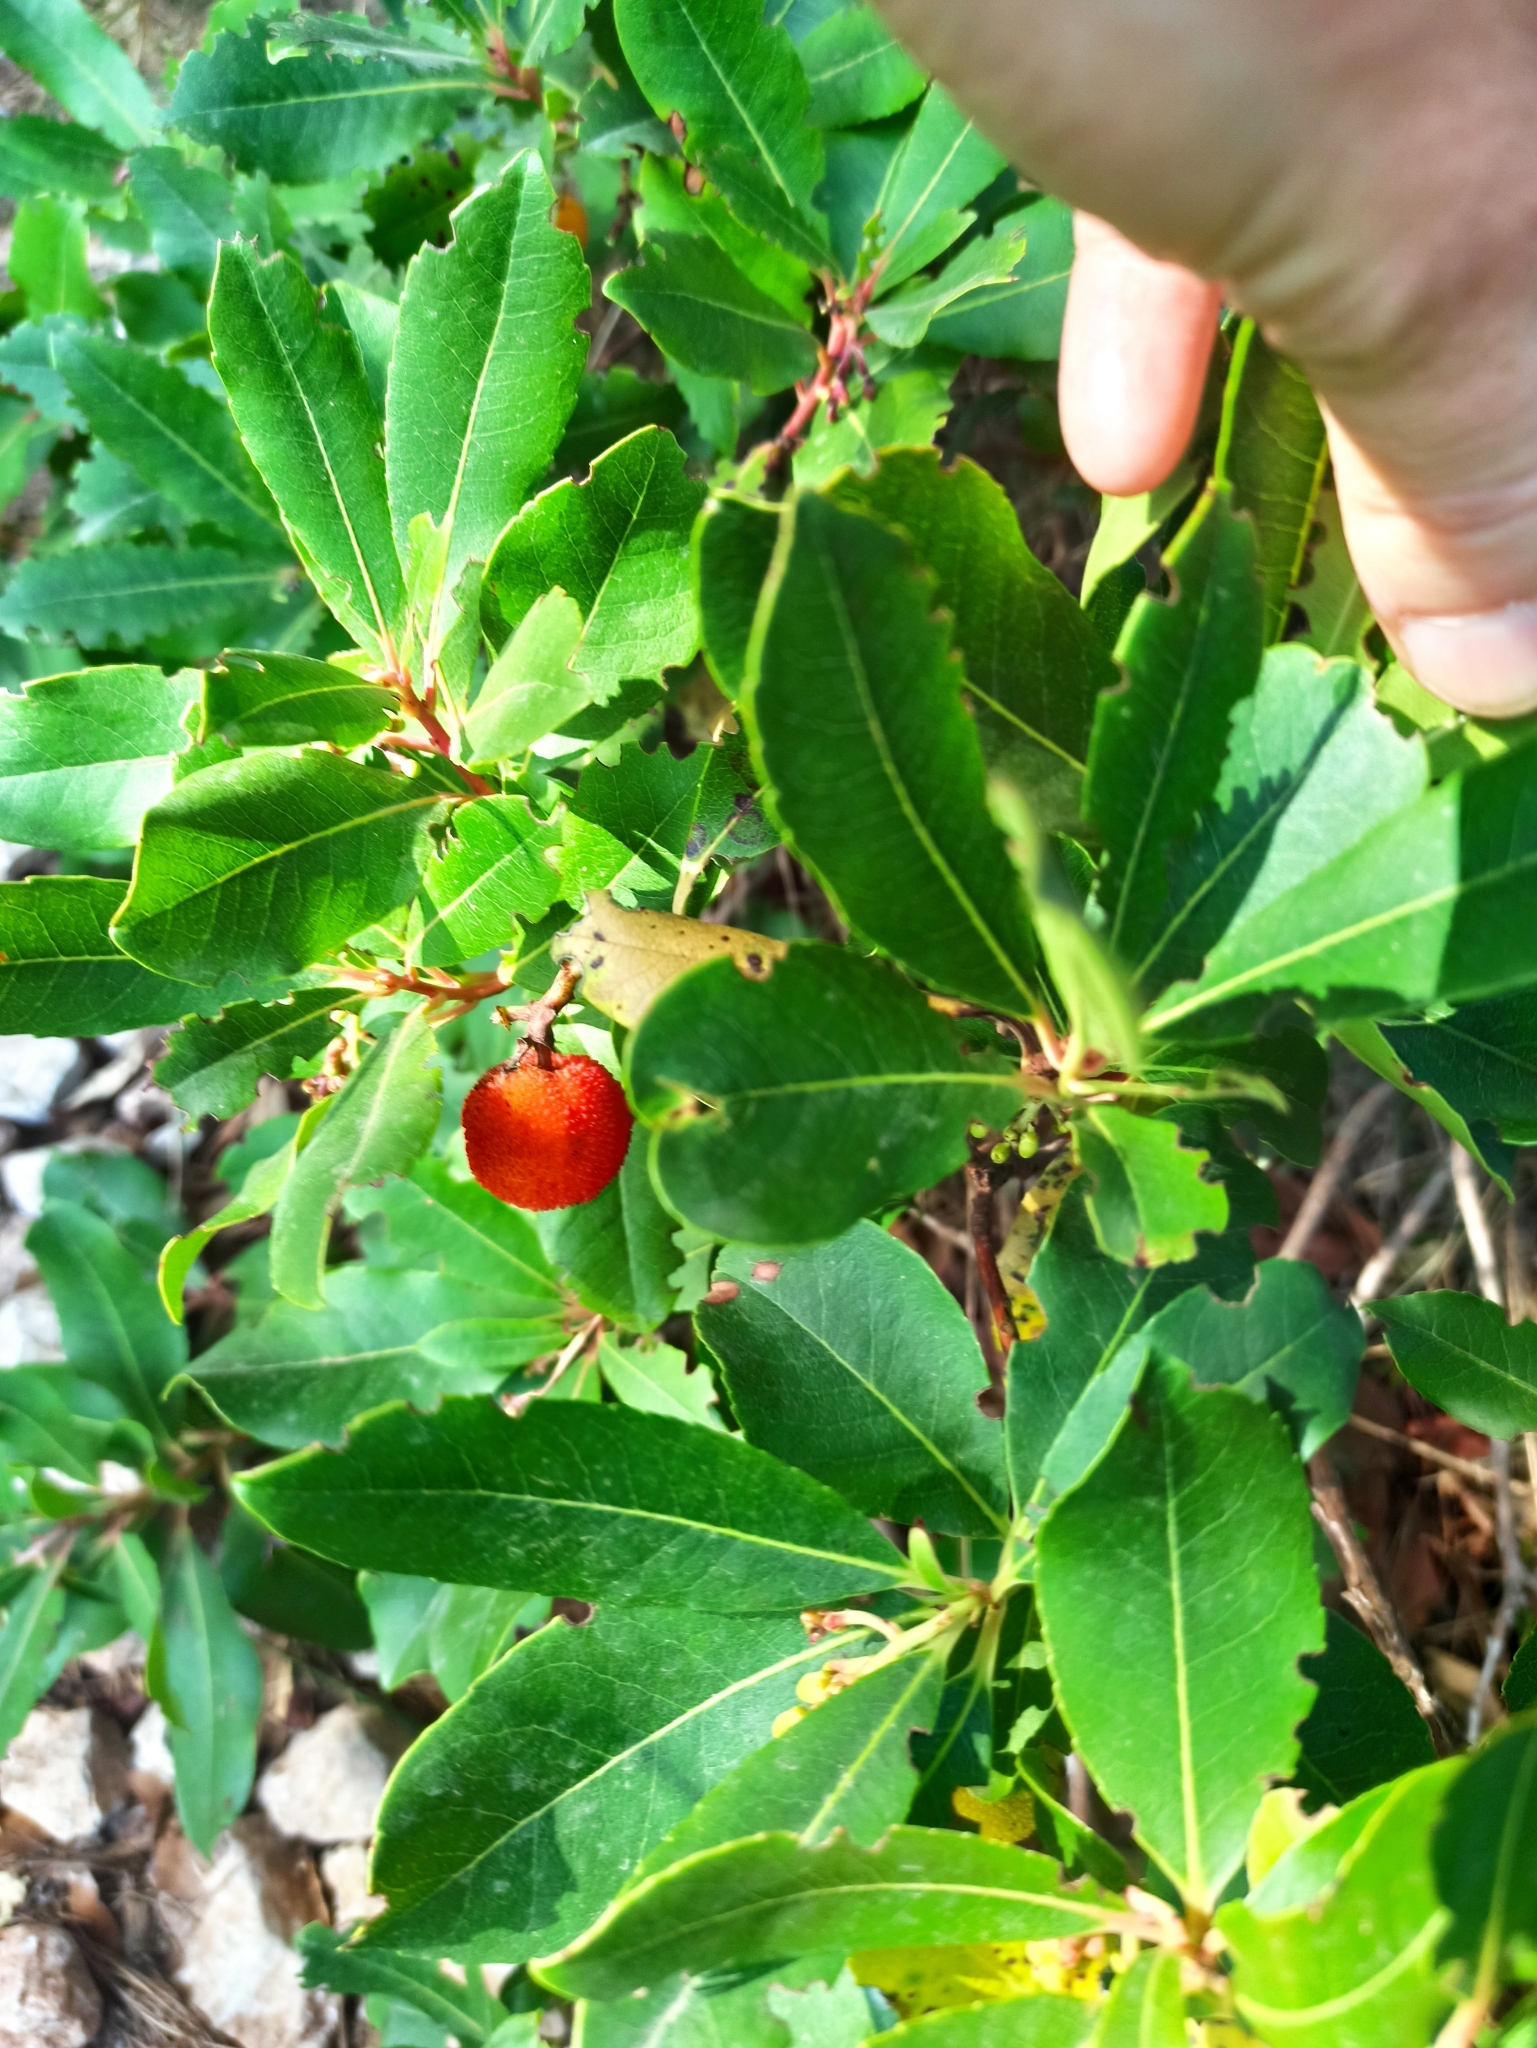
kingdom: Plantae
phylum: Tracheophyta
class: Magnoliopsida
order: Ericales
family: Ericaceae
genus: Arbutus
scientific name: Arbutus unedo
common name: Strawberry-tree
